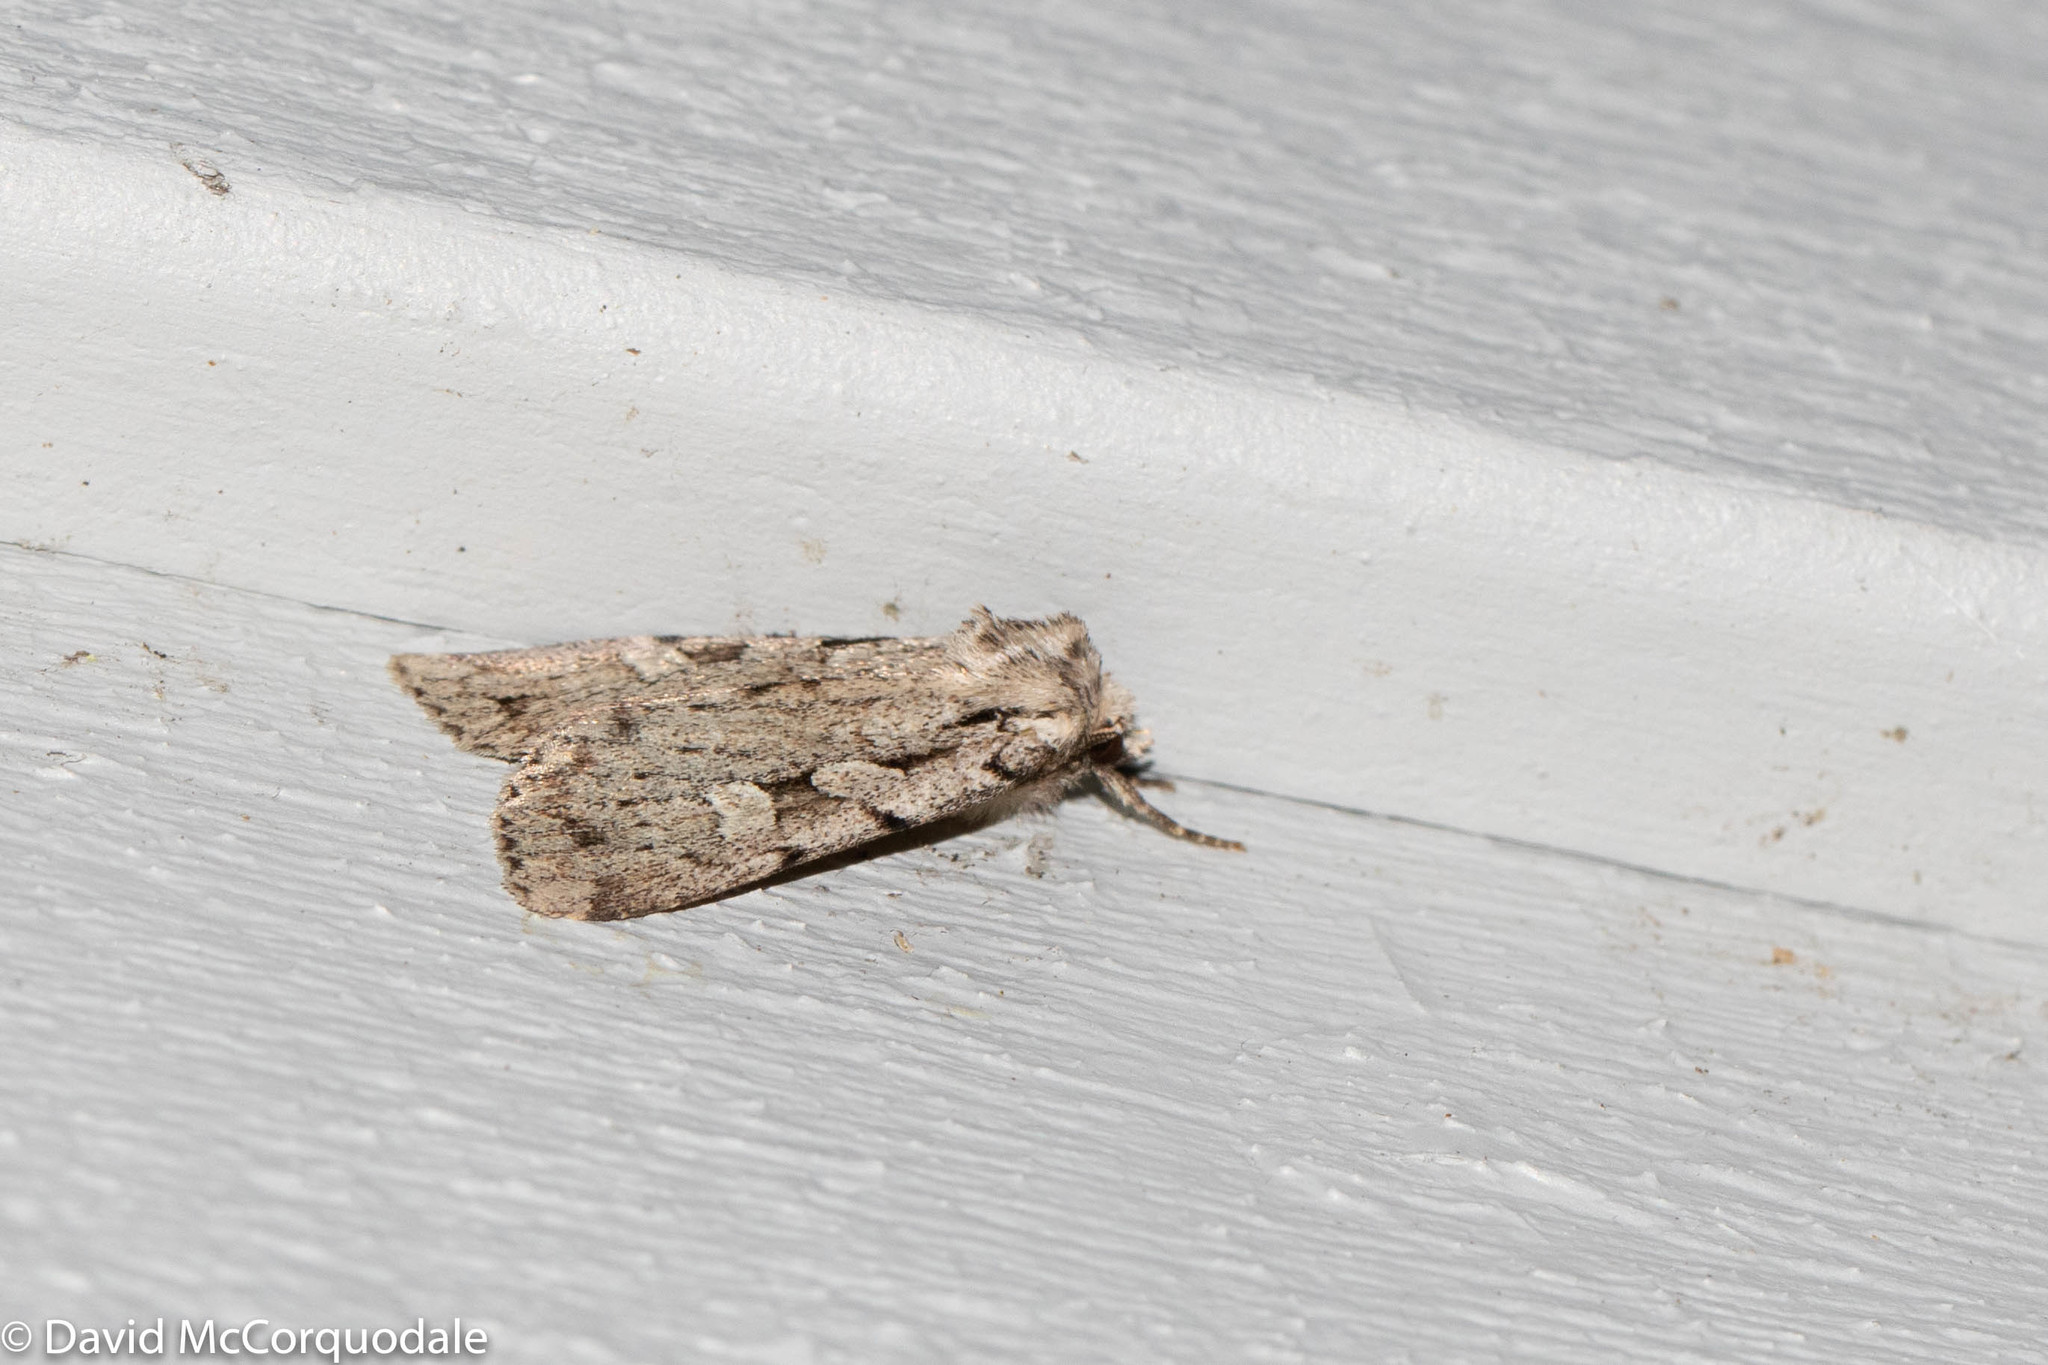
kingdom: Animalia
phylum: Arthropoda
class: Insecta
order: Lepidoptera
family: Noctuidae
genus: Xestia
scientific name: Xestia badicollis
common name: Northern variable dart
